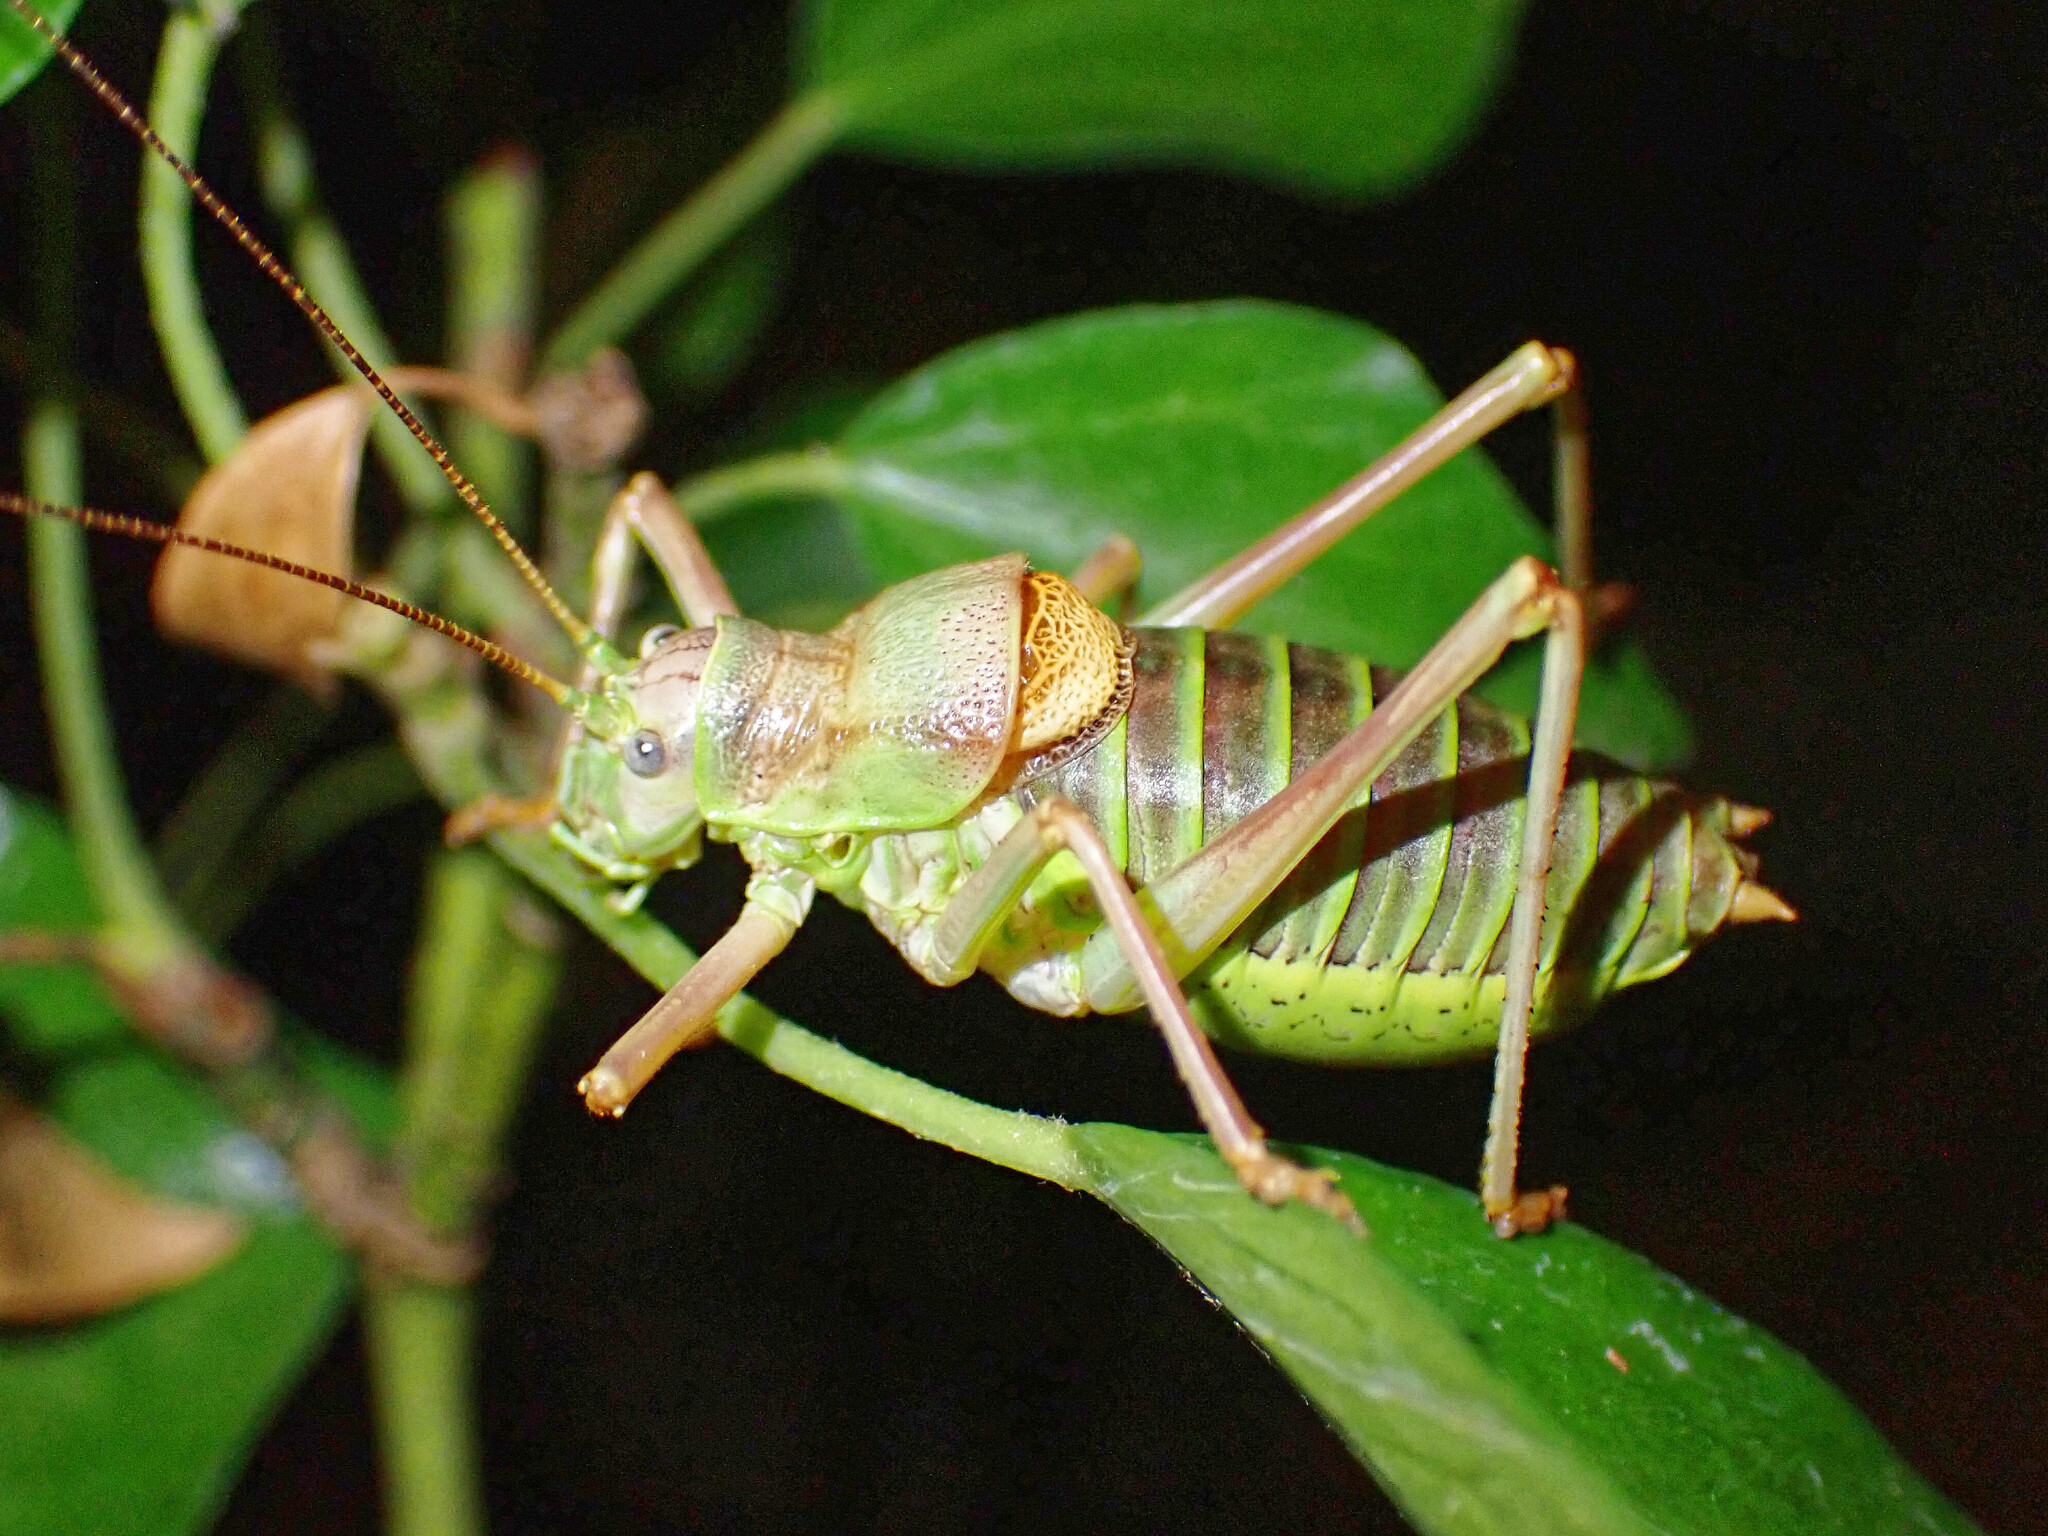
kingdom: Animalia
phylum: Arthropoda
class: Insecta
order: Orthoptera
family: Tettigoniidae
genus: Ephippiger
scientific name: Ephippiger diurnus
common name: Western saddle bush-cricket
